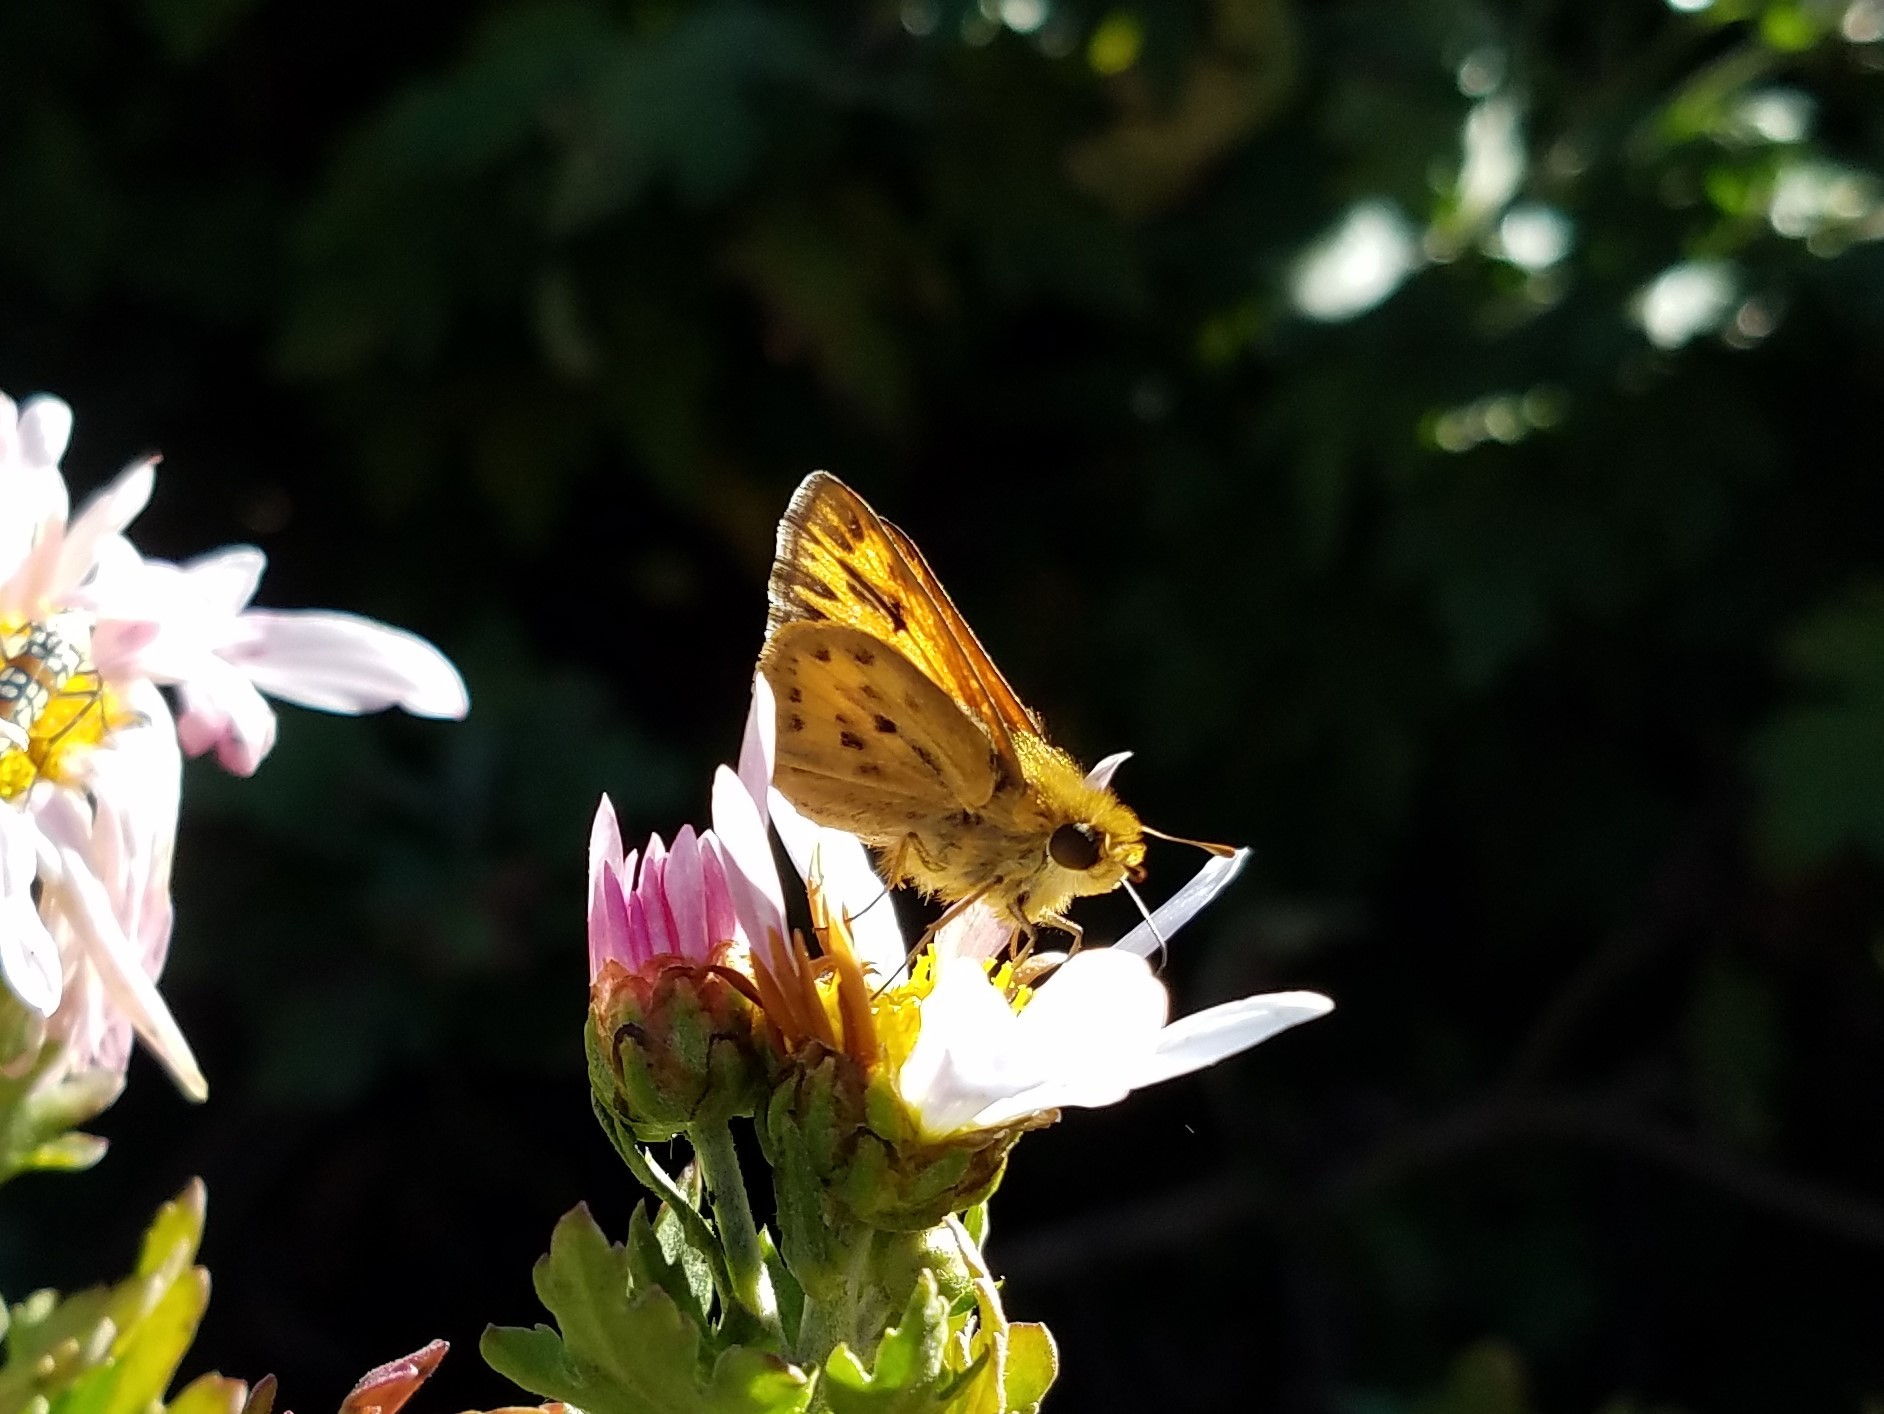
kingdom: Animalia
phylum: Arthropoda
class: Insecta
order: Lepidoptera
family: Hesperiidae
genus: Hylephila
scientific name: Hylephila phyleus
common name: Fiery skipper
